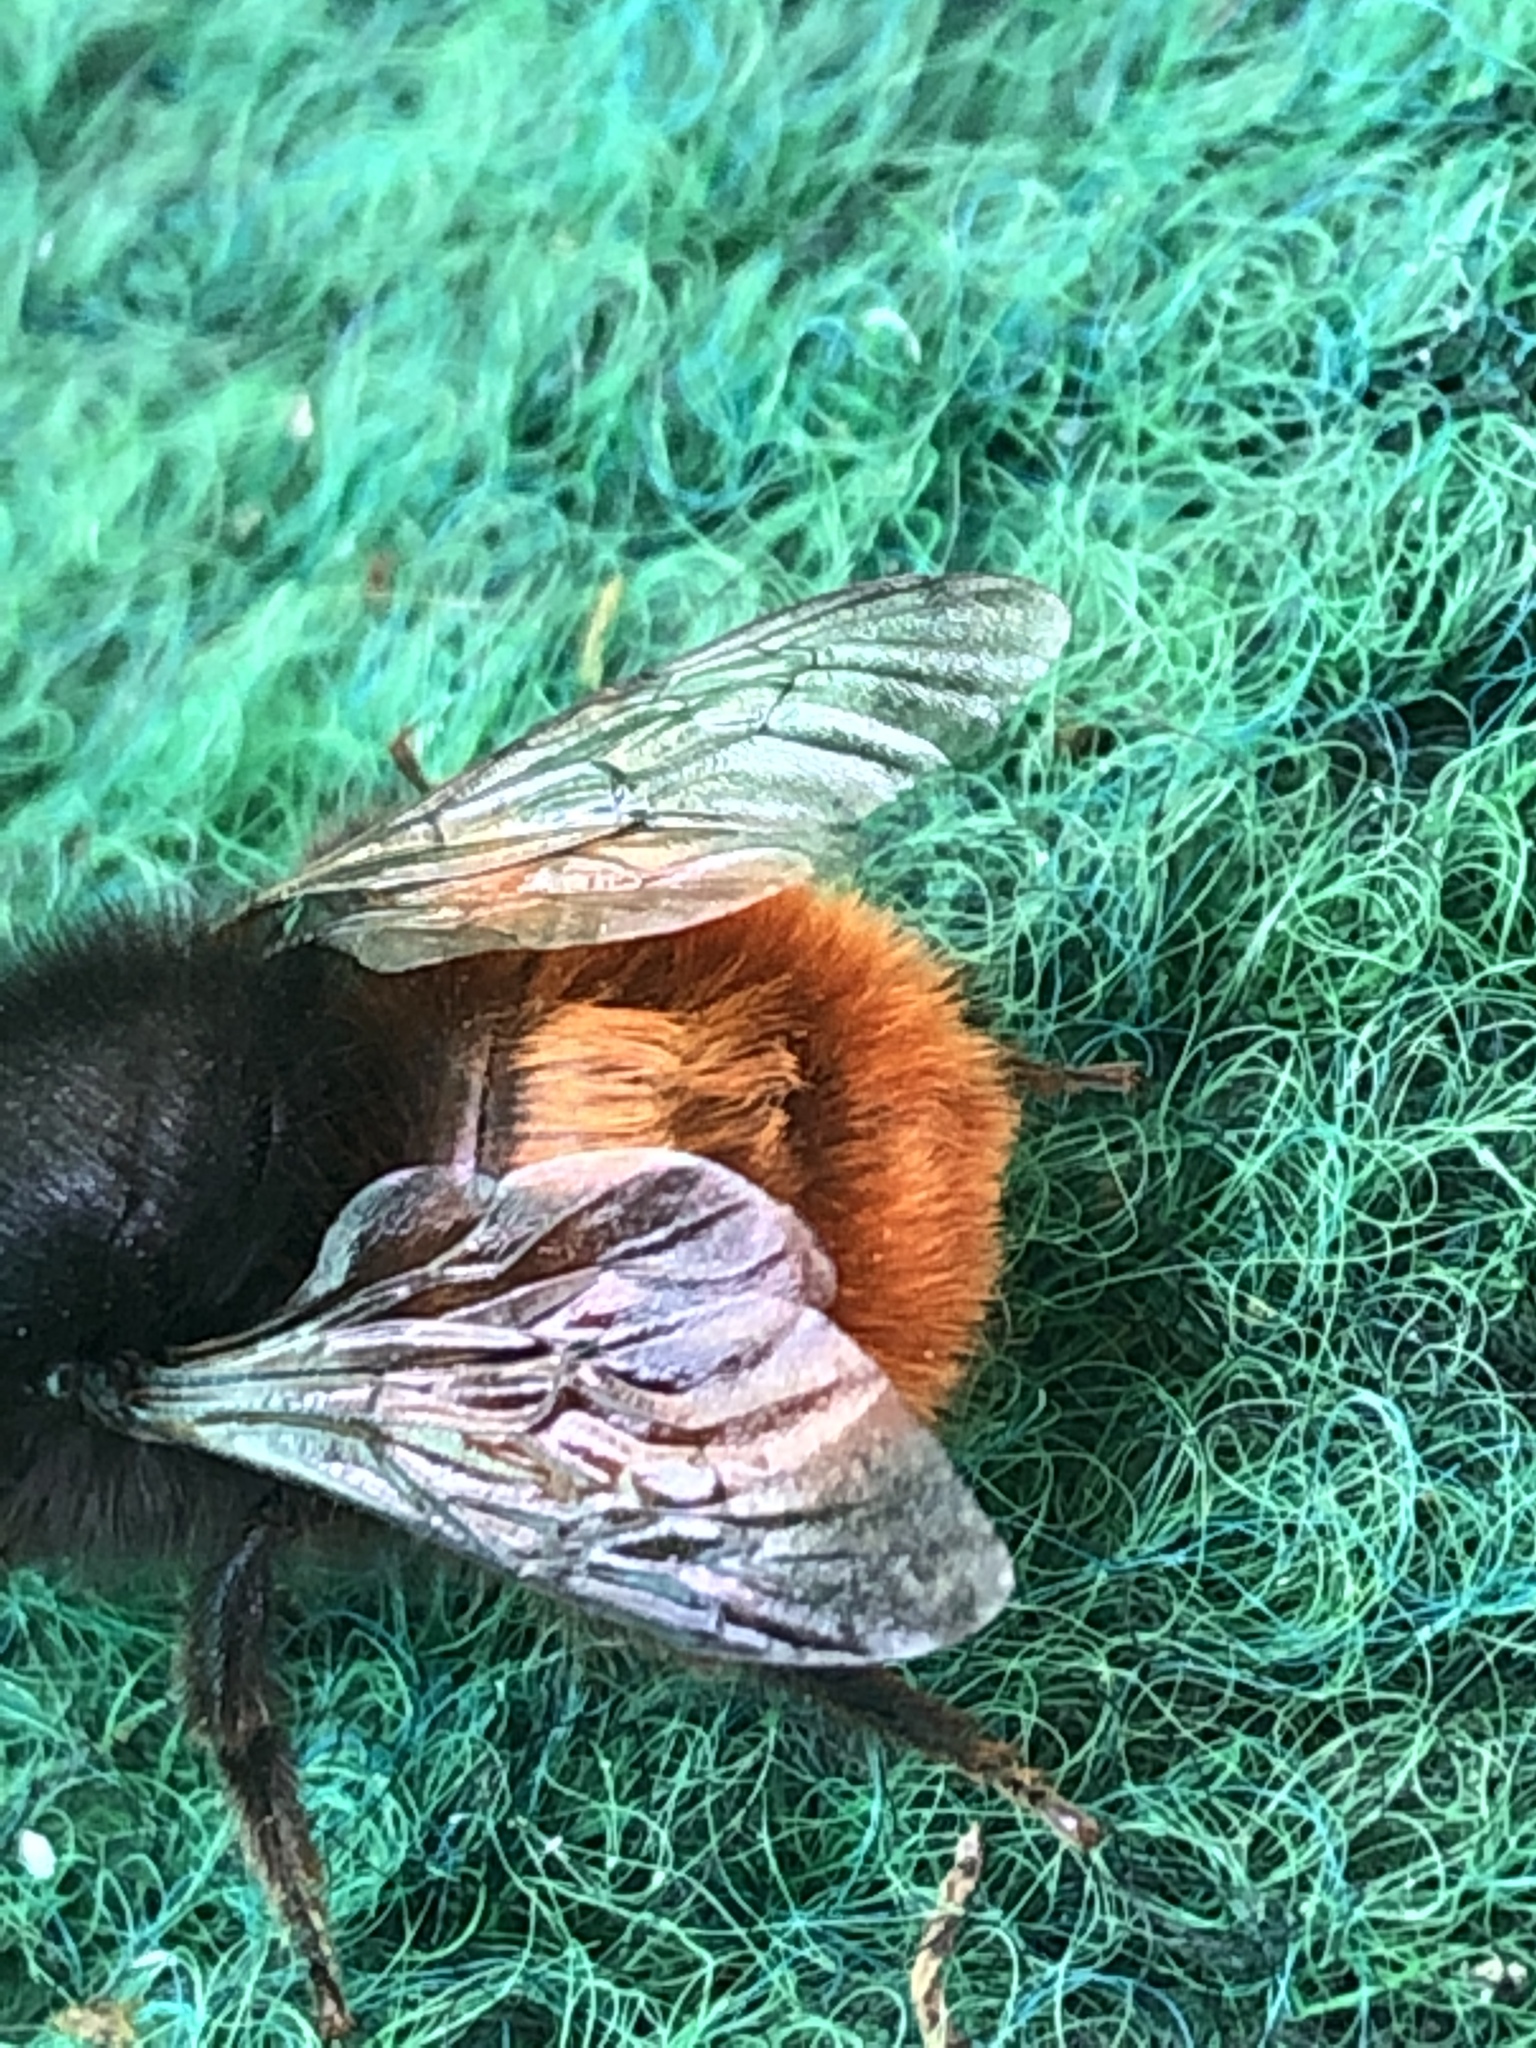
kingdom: Animalia
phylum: Arthropoda
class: Insecta
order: Hymenoptera
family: Megachilidae
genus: Osmia
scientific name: Osmia cornuta
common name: Mason bee
